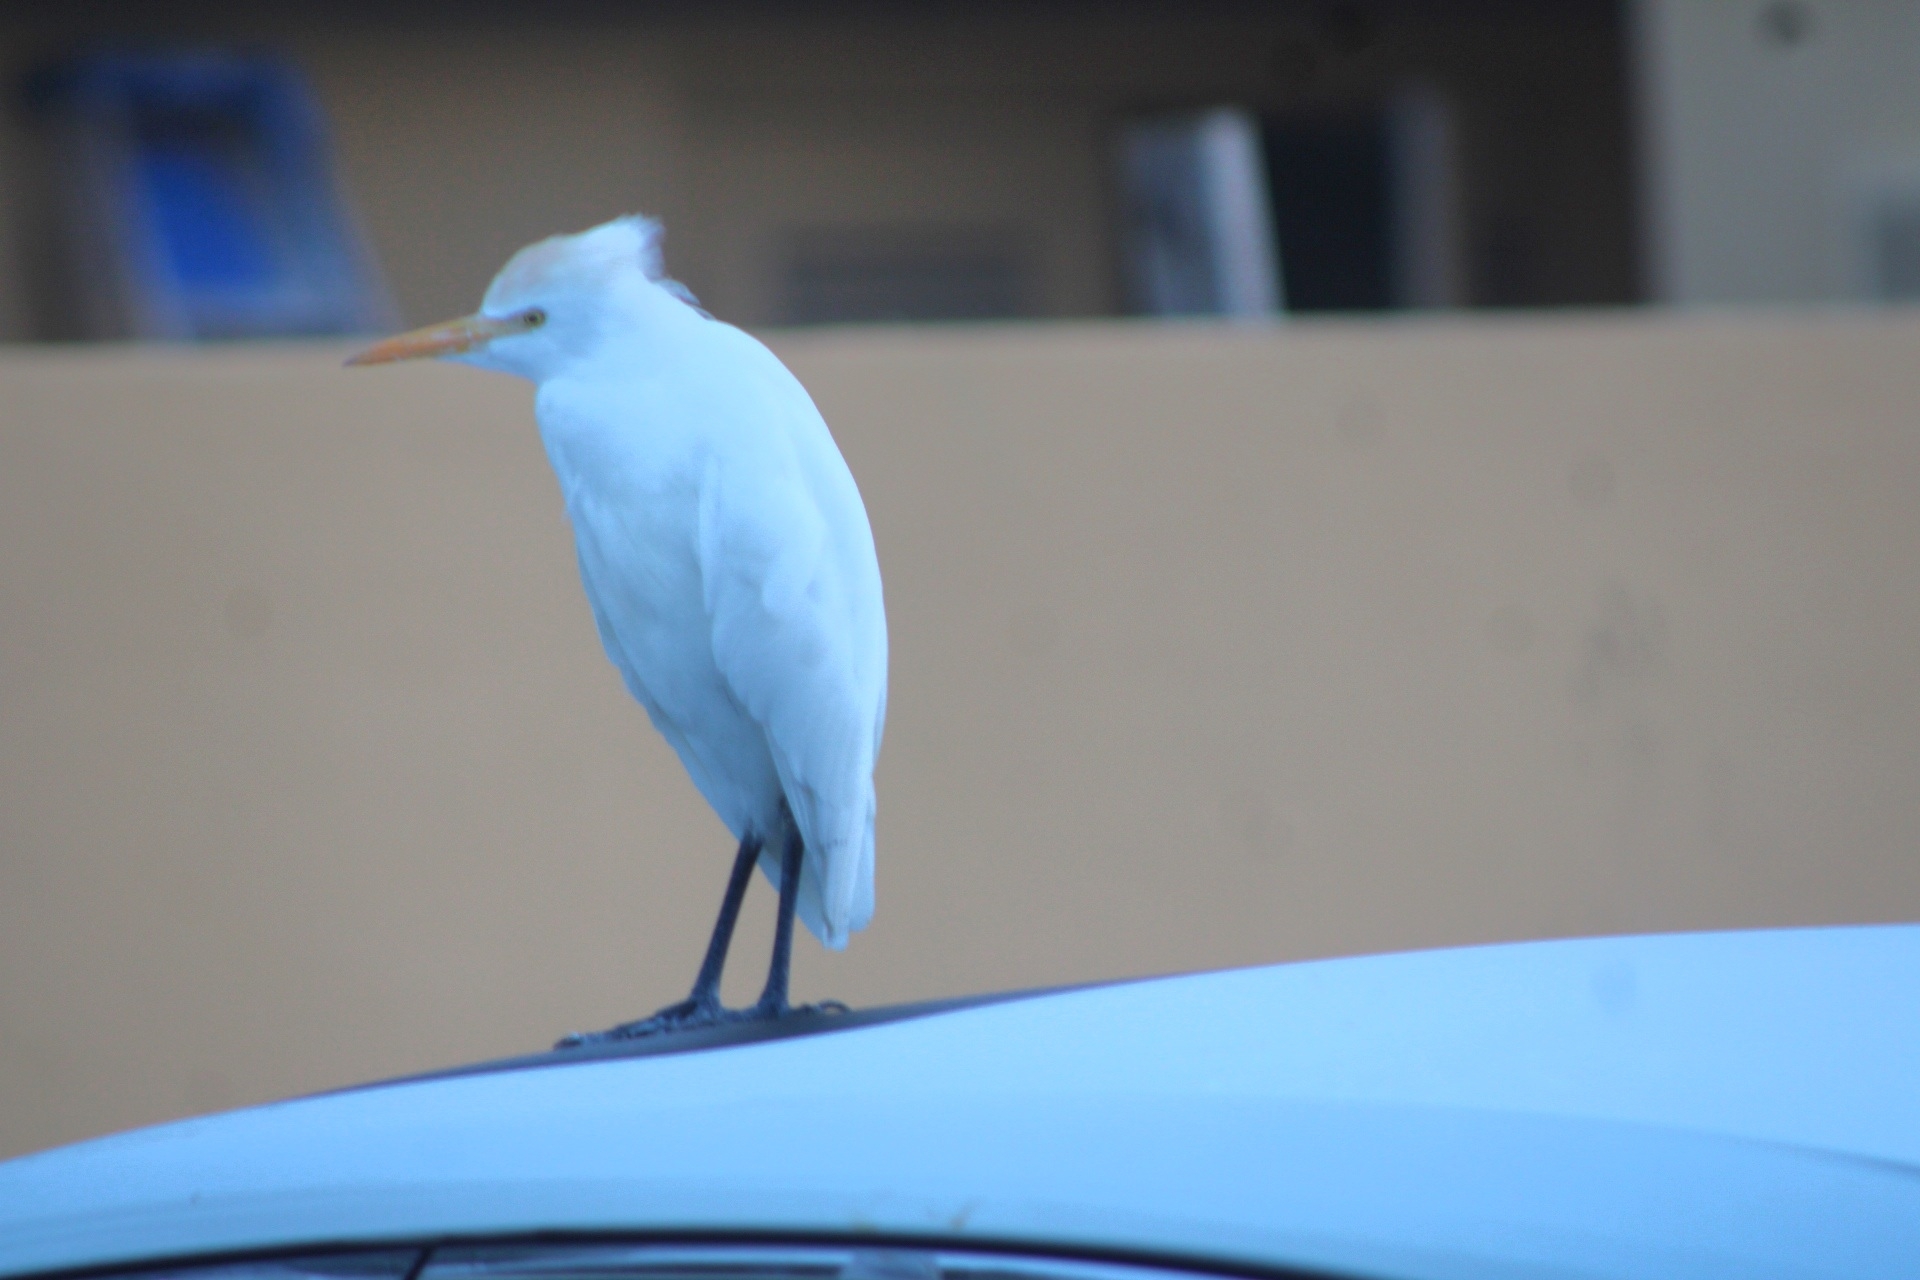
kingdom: Animalia
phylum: Chordata
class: Aves
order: Pelecaniformes
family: Ardeidae
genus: Bubulcus
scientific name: Bubulcus ibis
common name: Cattle egret
